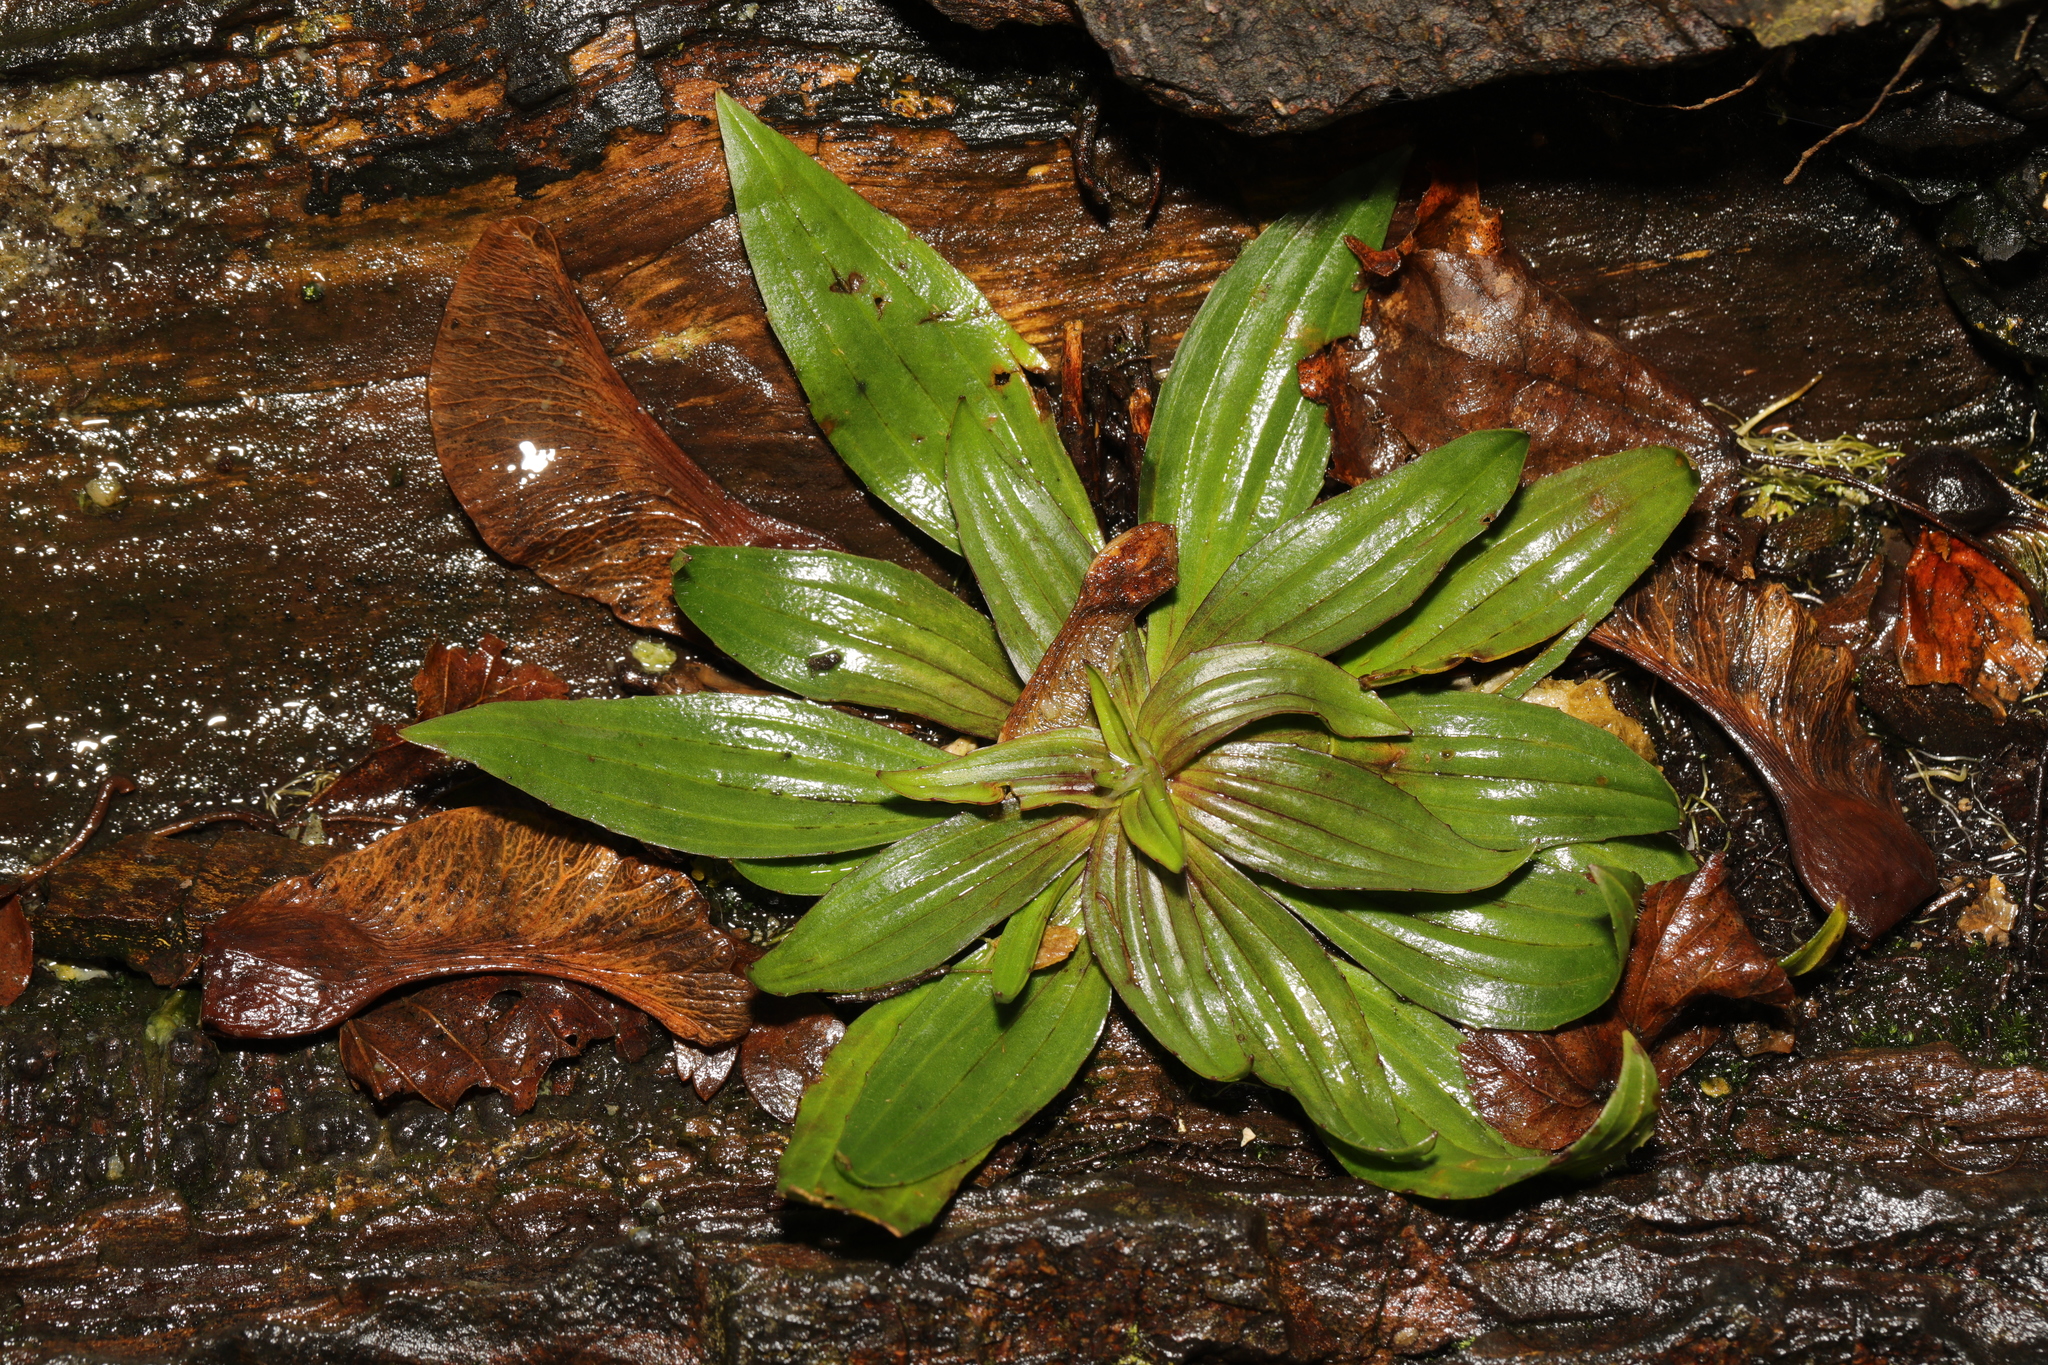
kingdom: Plantae
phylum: Tracheophyta
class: Magnoliopsida
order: Lamiales
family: Plantaginaceae
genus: Plantago
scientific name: Plantago lanceolata
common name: Ribwort plantain
